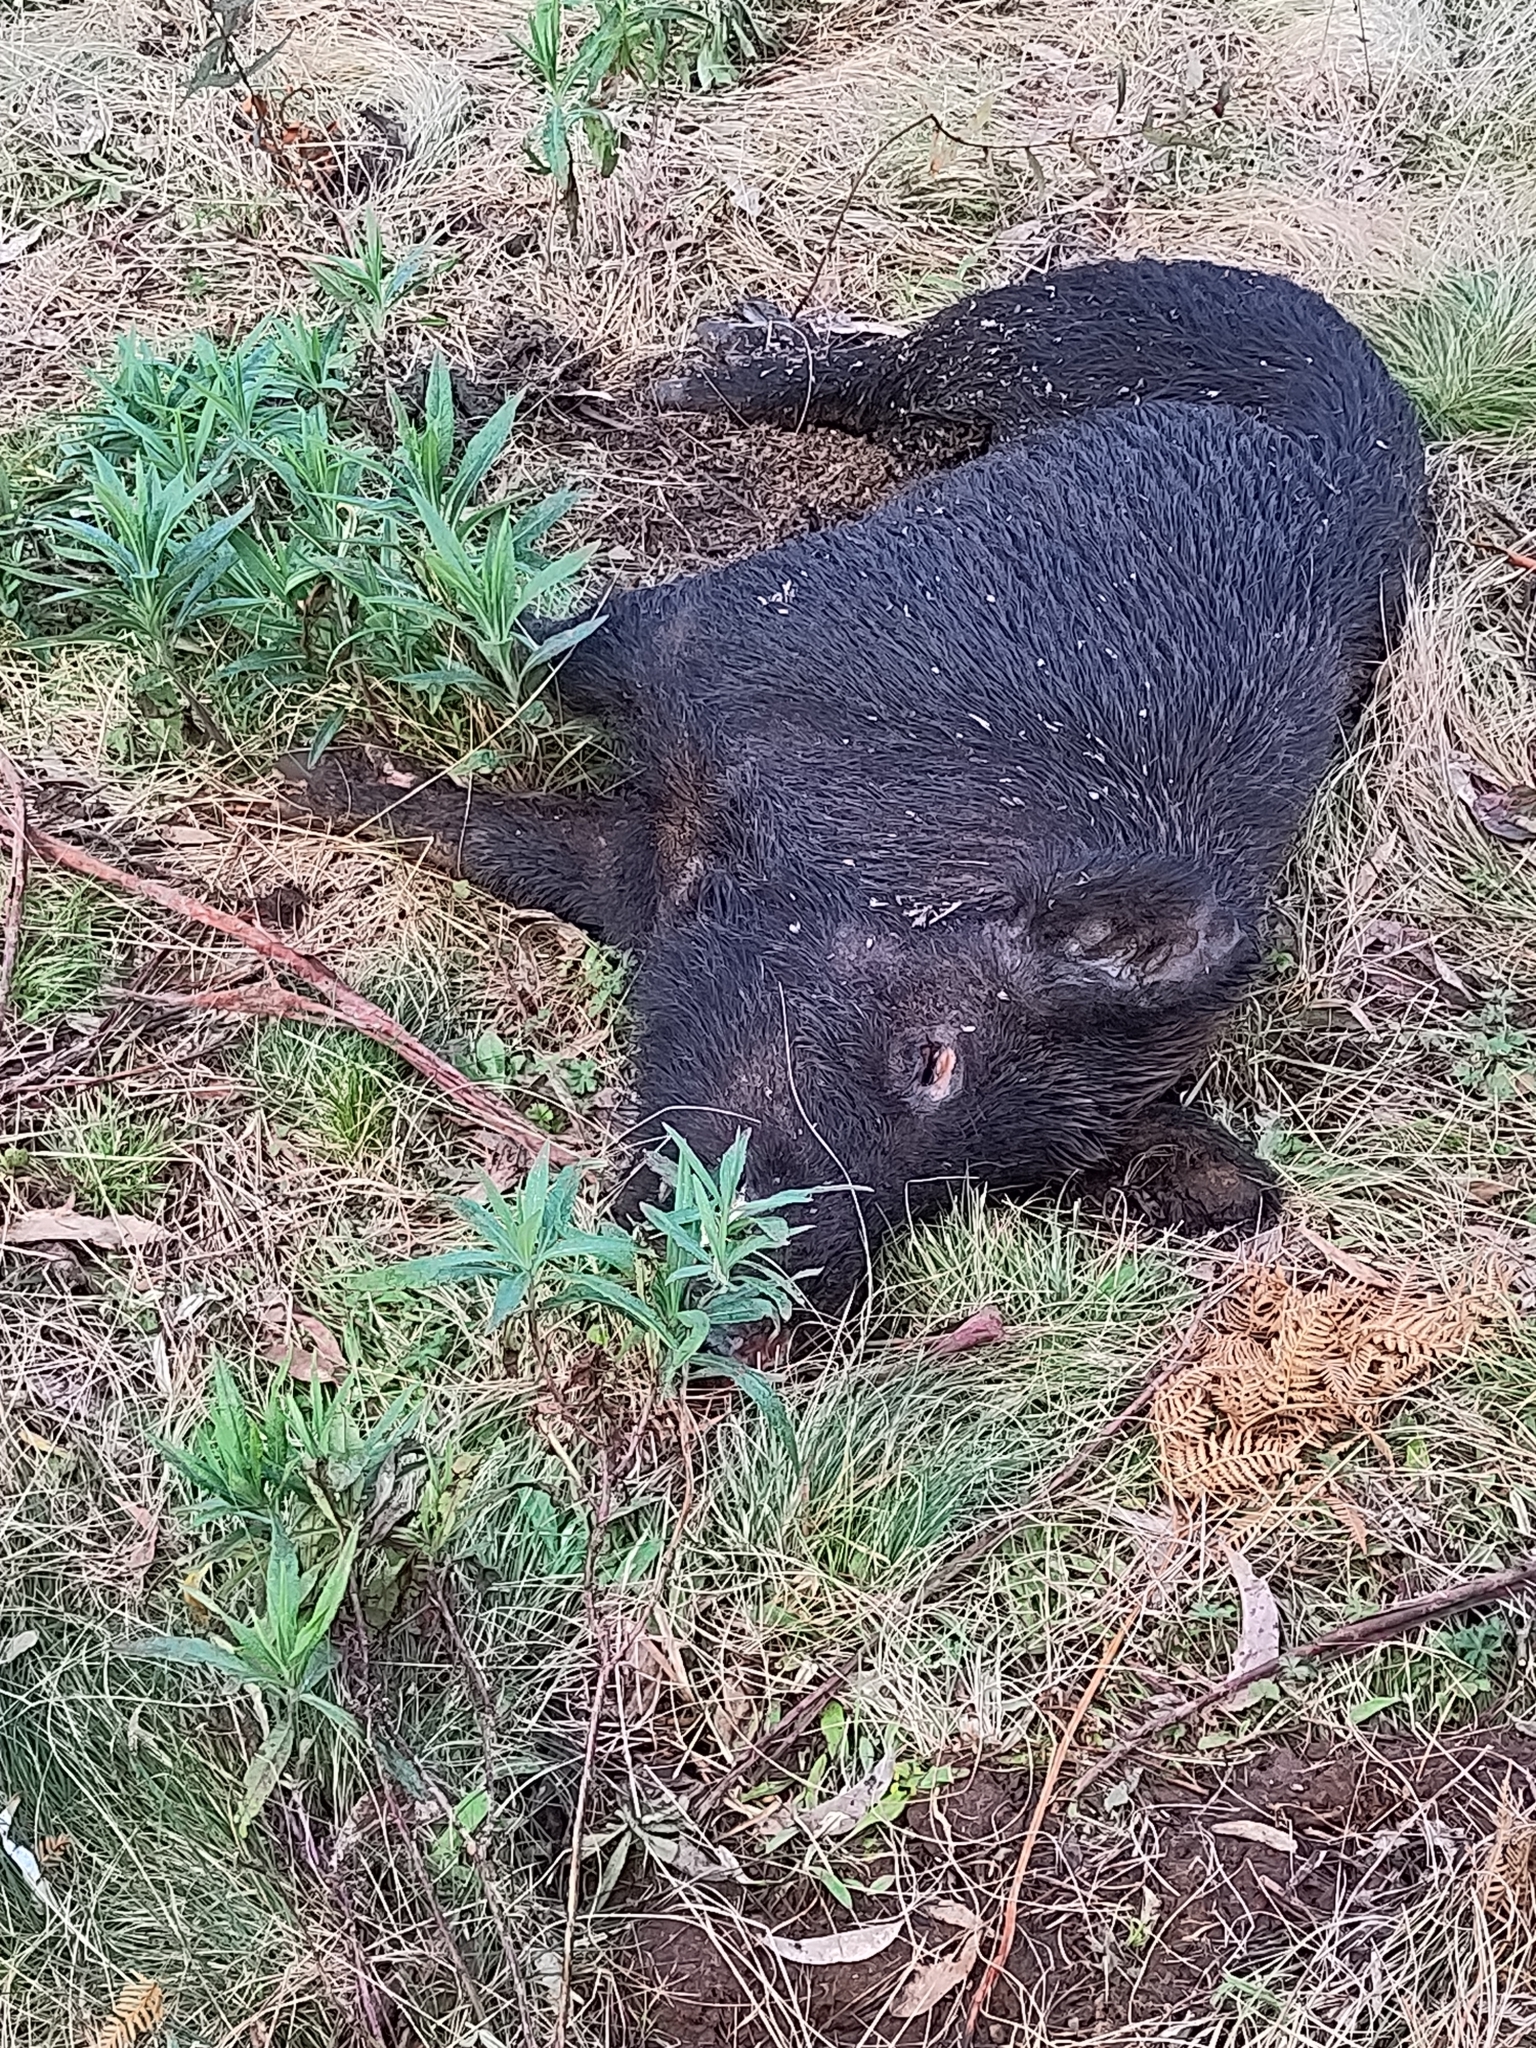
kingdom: Animalia
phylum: Chordata
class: Mammalia
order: Artiodactyla
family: Suidae
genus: Sus
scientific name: Sus scrofa
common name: Wild boar
